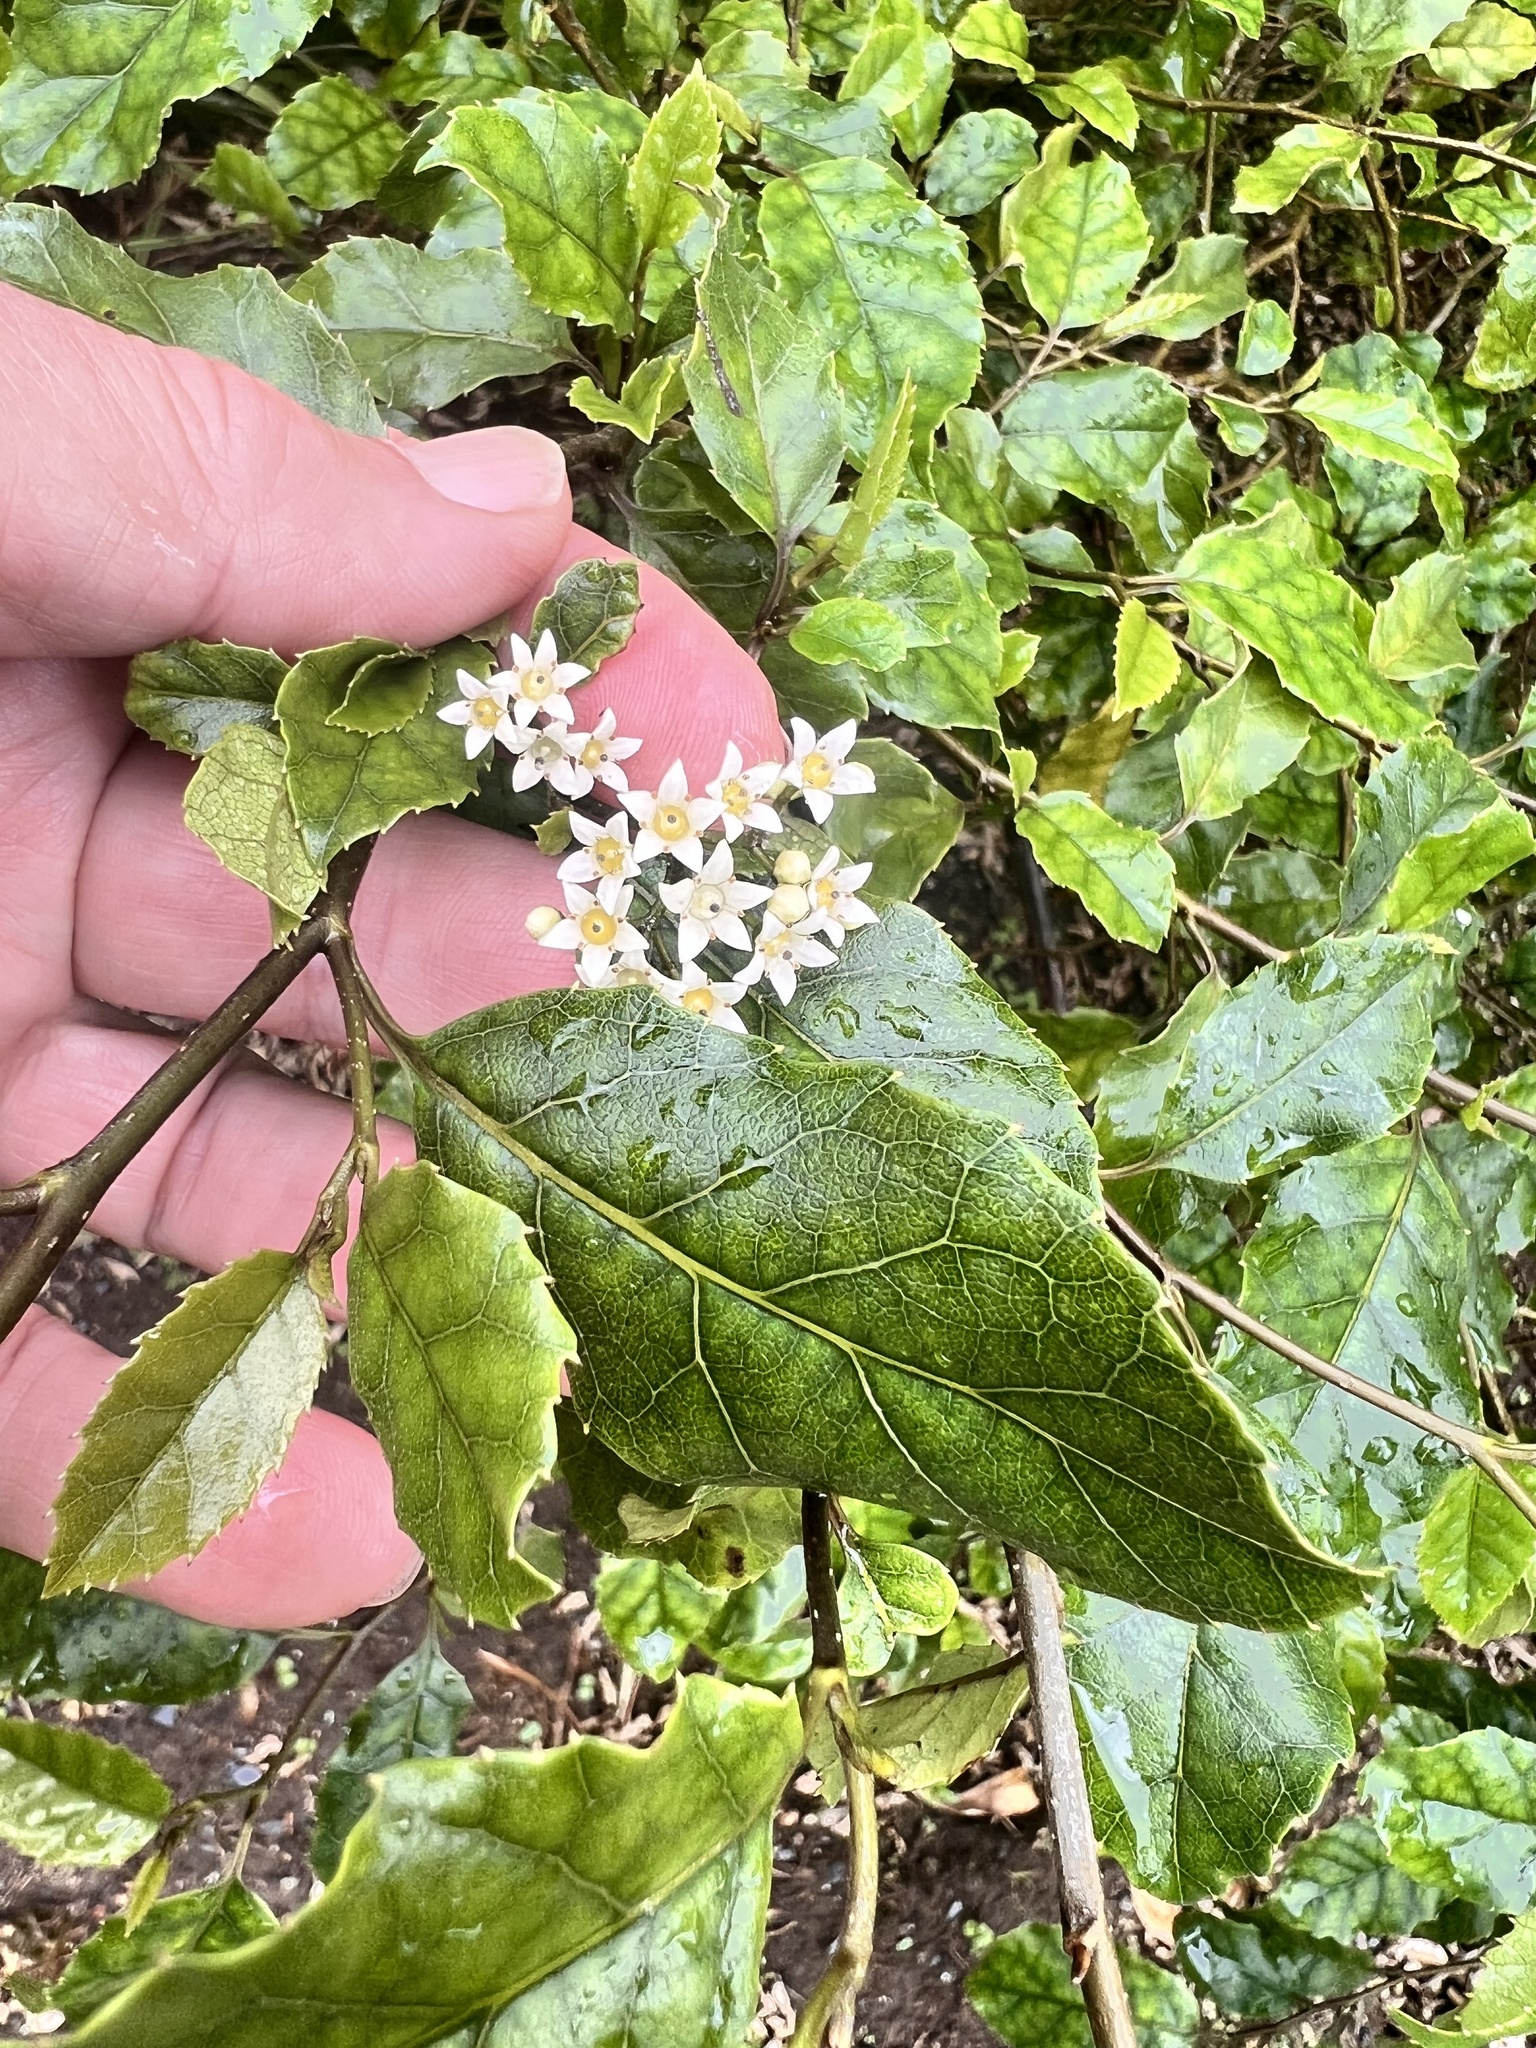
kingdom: Plantae
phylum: Tracheophyta
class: Magnoliopsida
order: Asterales
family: Rousseaceae
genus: Carpodetus
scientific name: Carpodetus serratus
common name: White mapau
